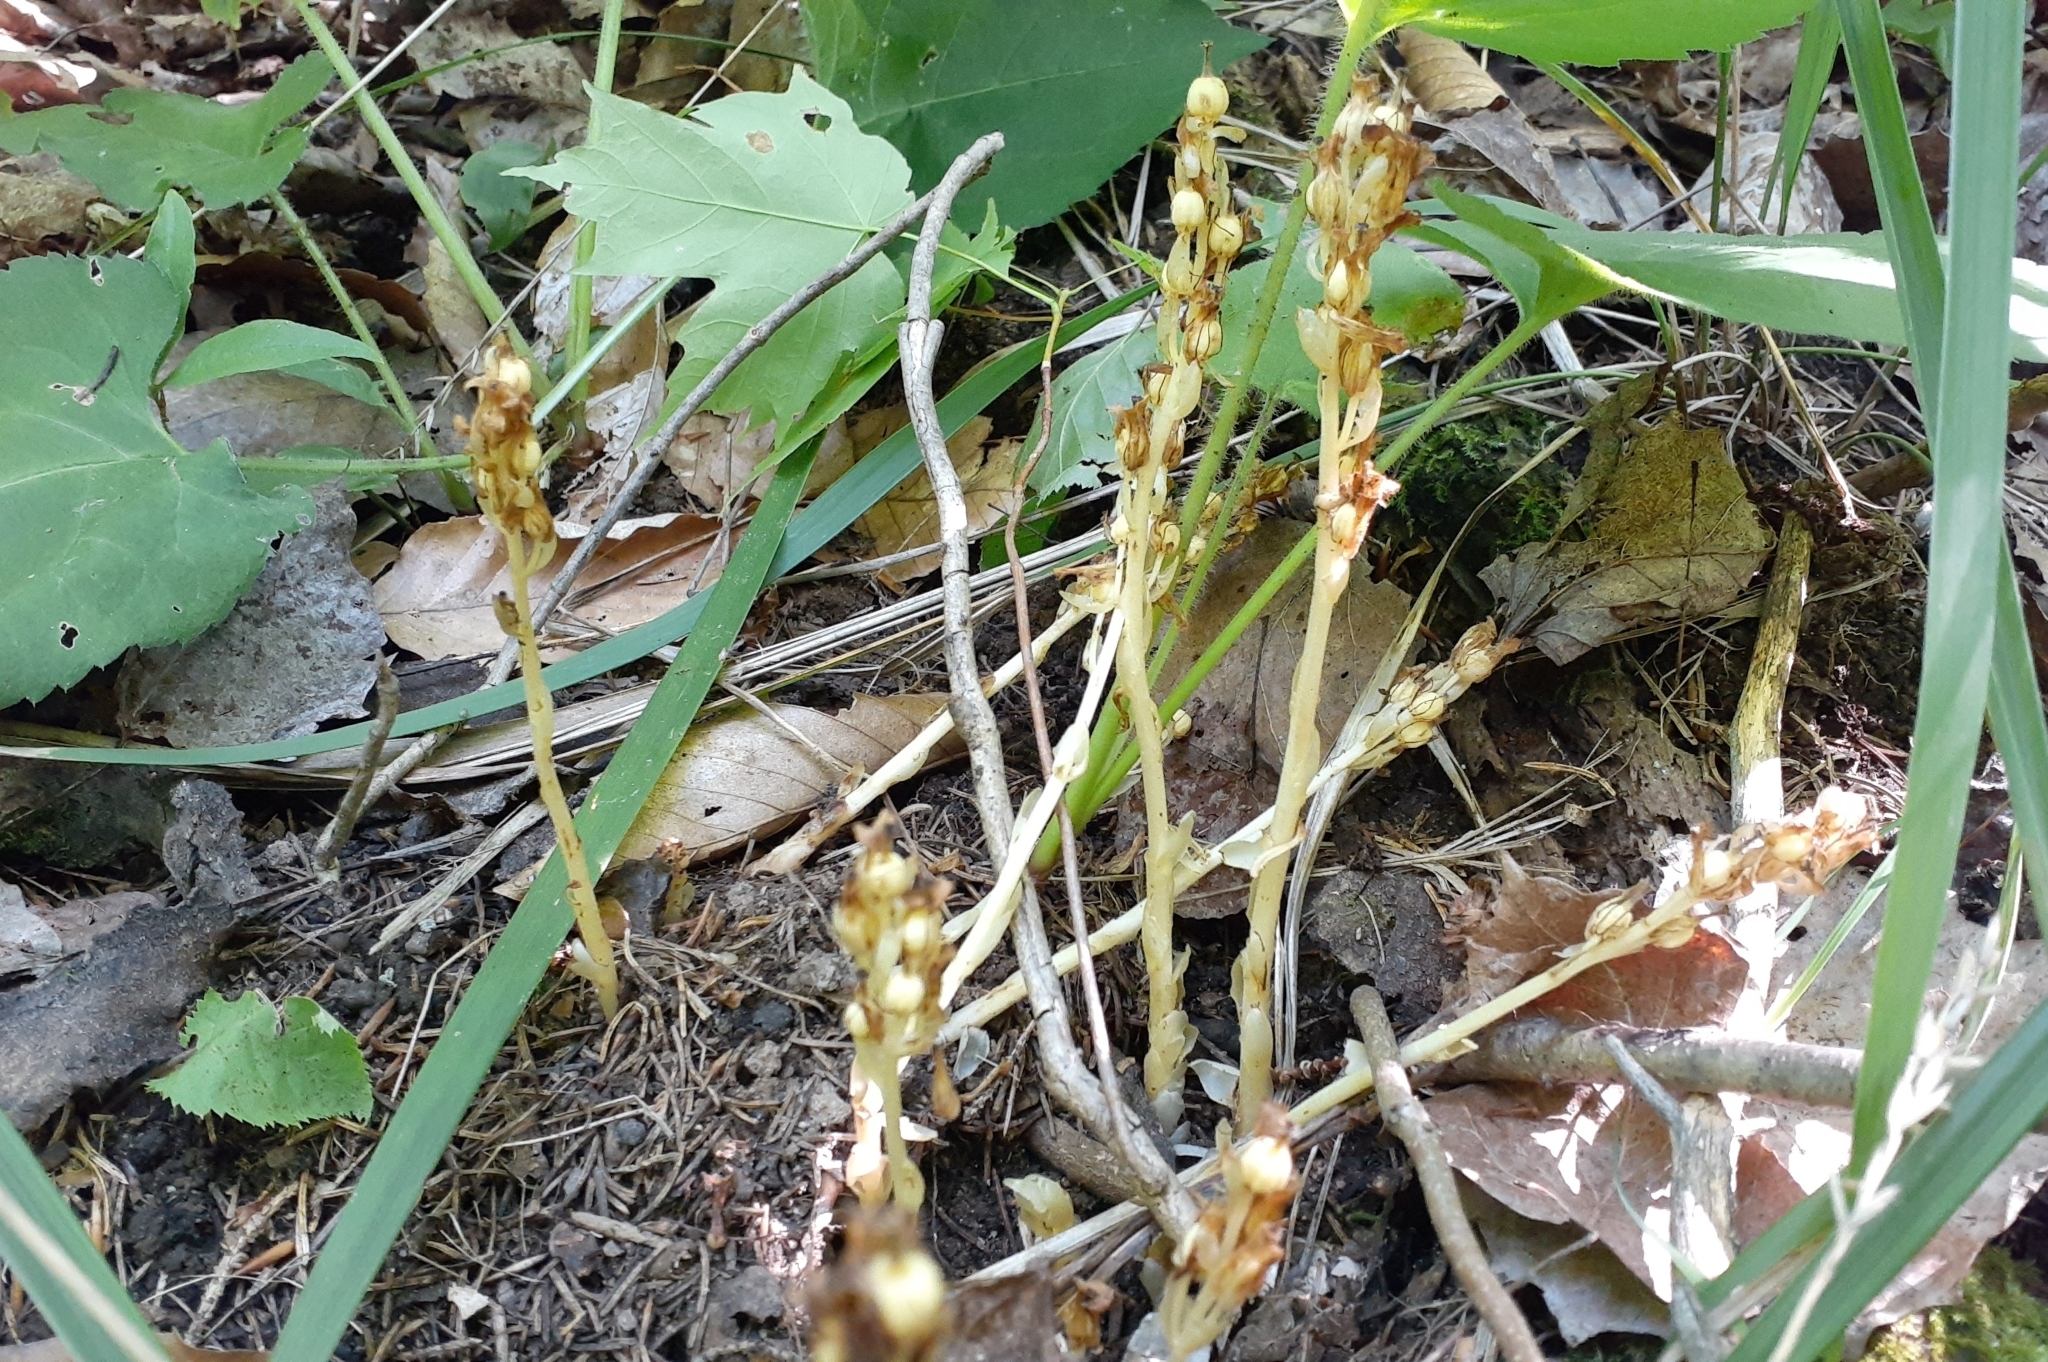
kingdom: Plantae
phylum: Tracheophyta
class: Magnoliopsida
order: Ericales
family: Ericaceae
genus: Hypopitys
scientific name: Hypopitys monotropa
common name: Yellow bird's-nest
